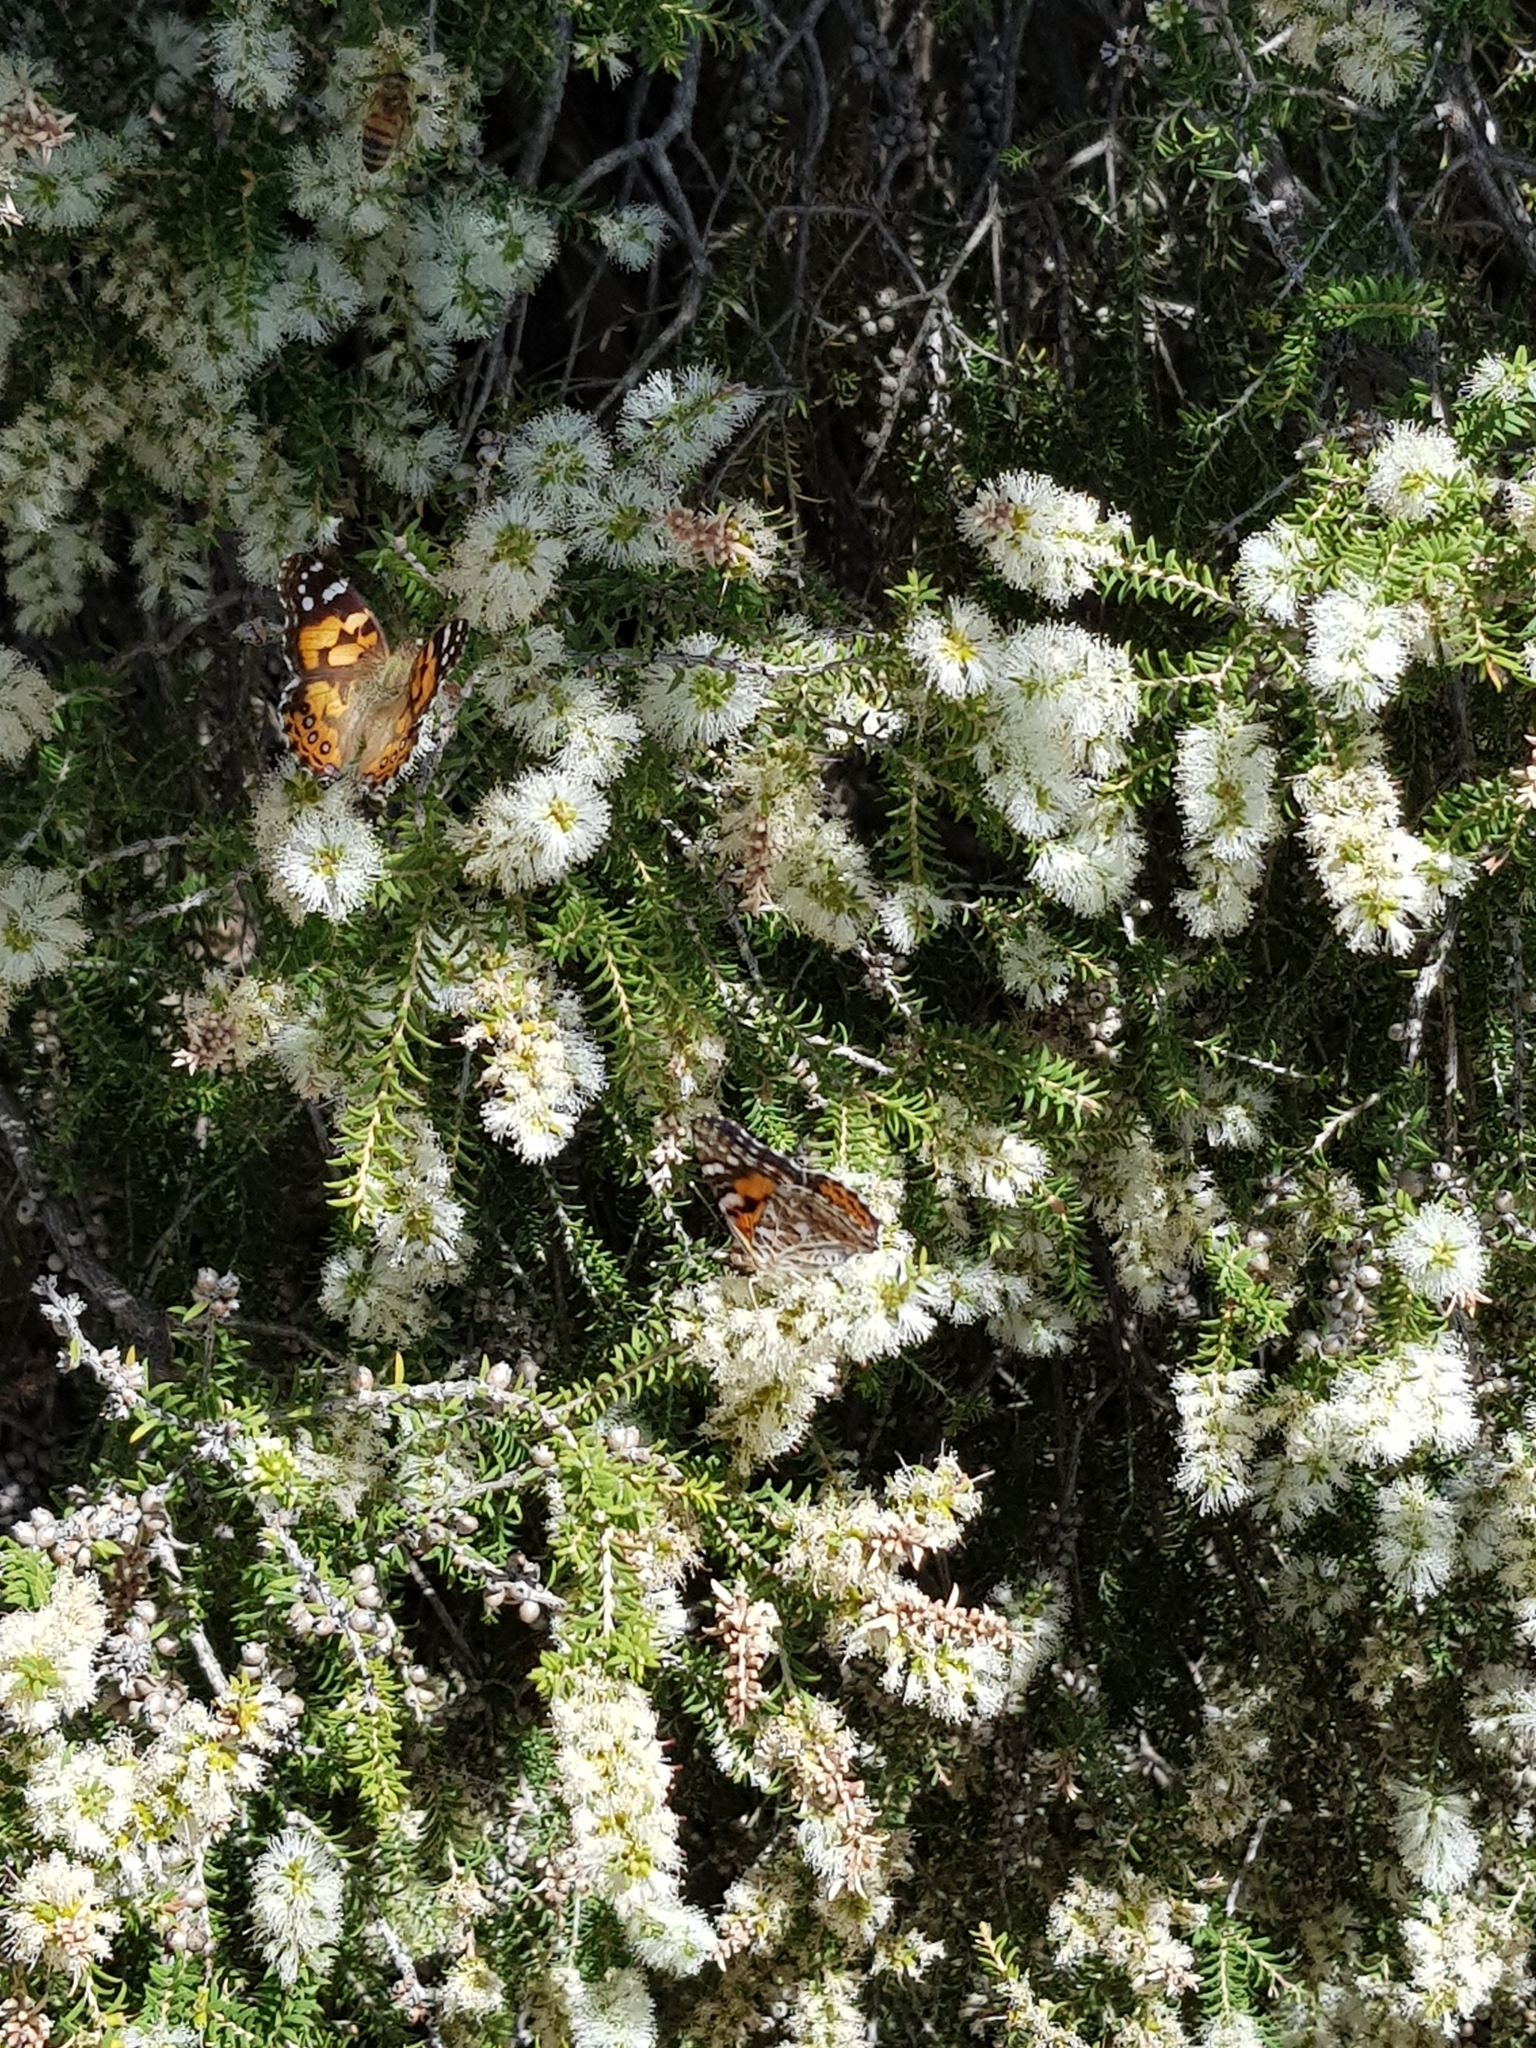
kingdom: Animalia
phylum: Arthropoda
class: Insecta
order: Lepidoptera
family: Nymphalidae
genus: Vanessa
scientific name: Vanessa kershawi
